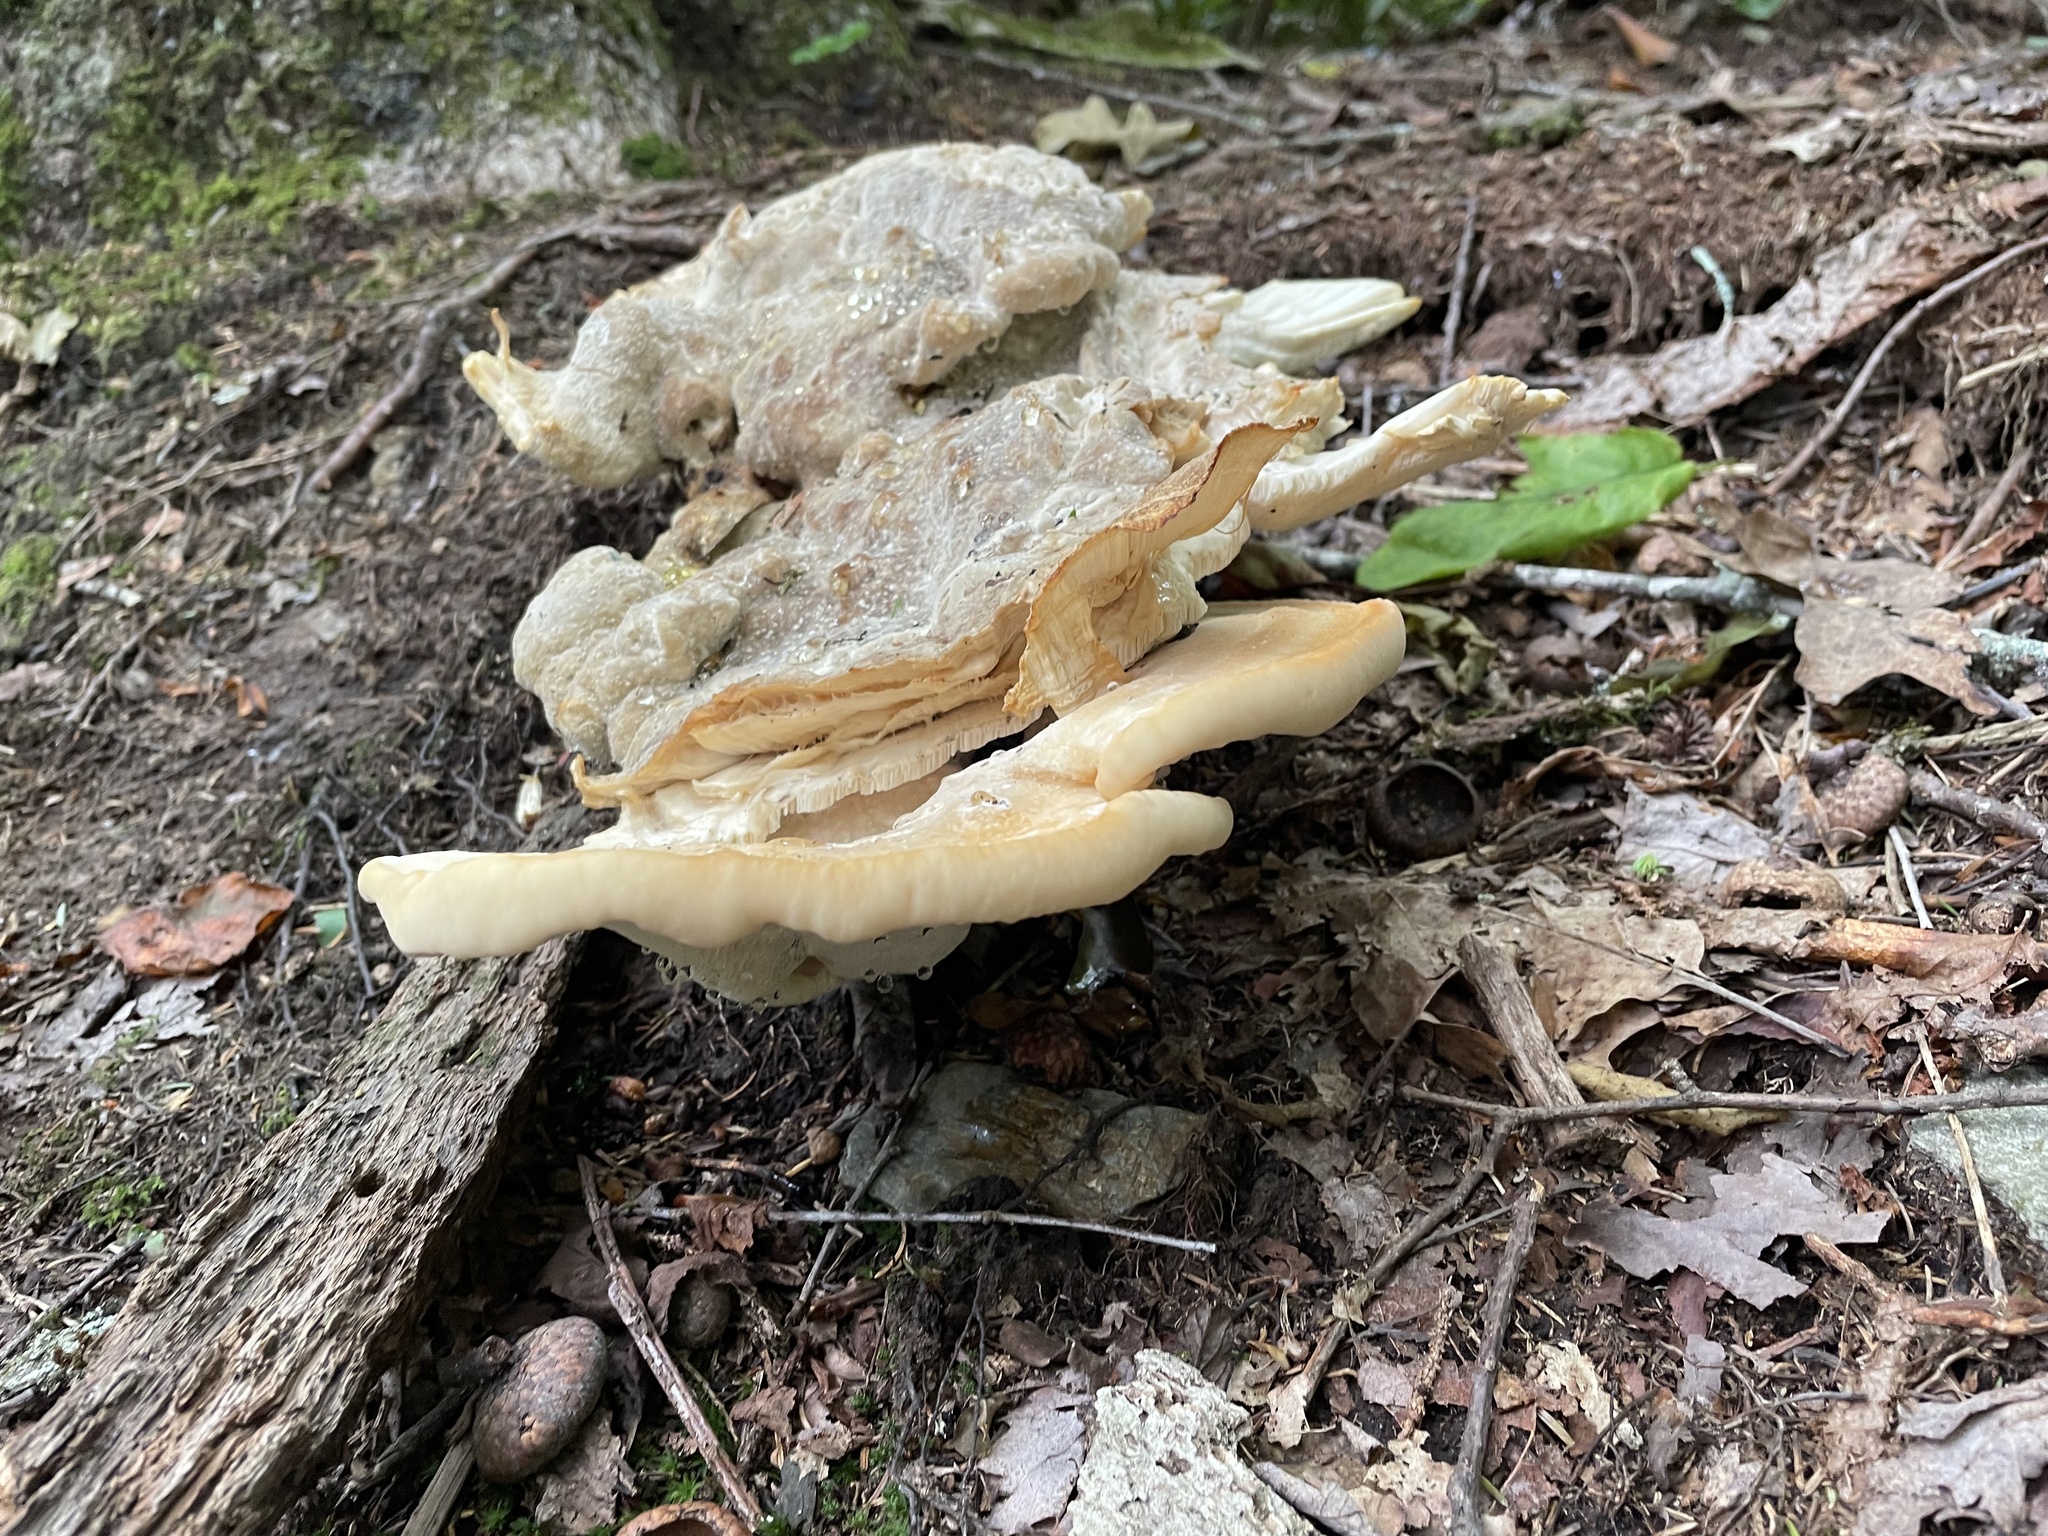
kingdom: Fungi
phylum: Basidiomycota
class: Agaricomycetes
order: Russulales
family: Bondarzewiaceae
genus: Bondarzewia
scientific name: Bondarzewia berkeleyi
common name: Berkeley's polypore
